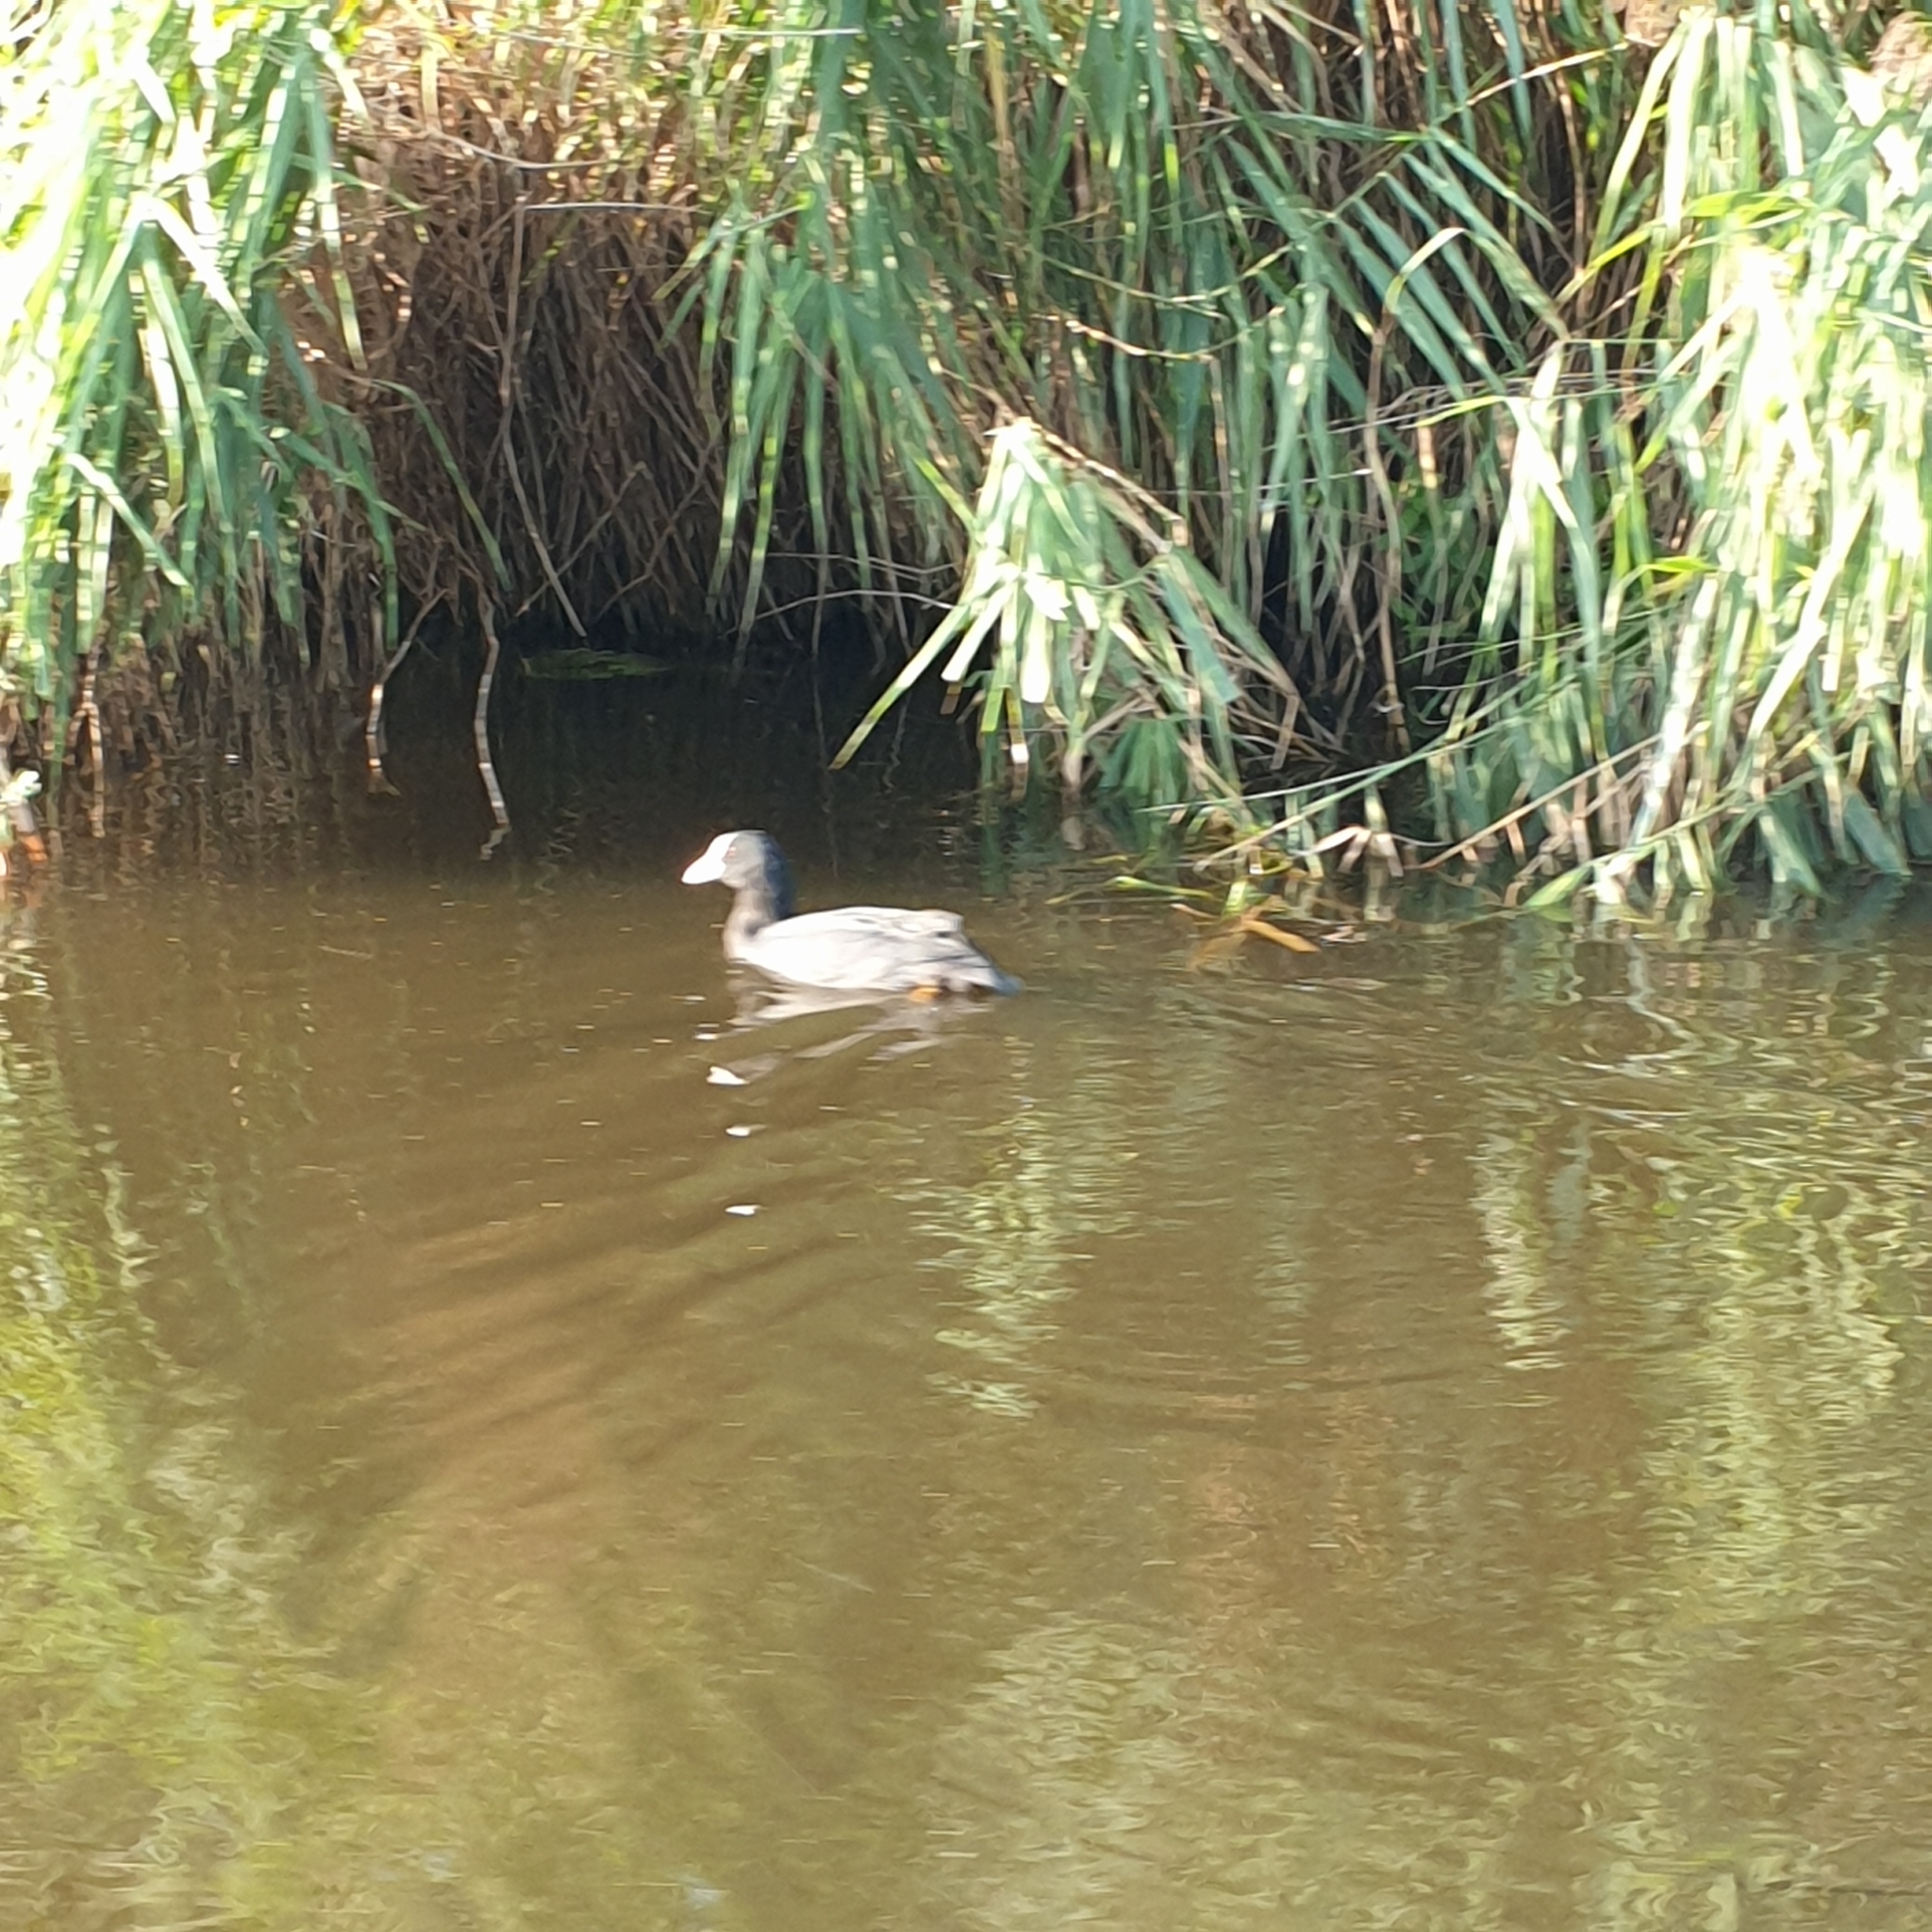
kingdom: Animalia
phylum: Chordata
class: Aves
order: Gruiformes
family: Rallidae
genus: Fulica
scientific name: Fulica atra
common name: Eurasian coot
